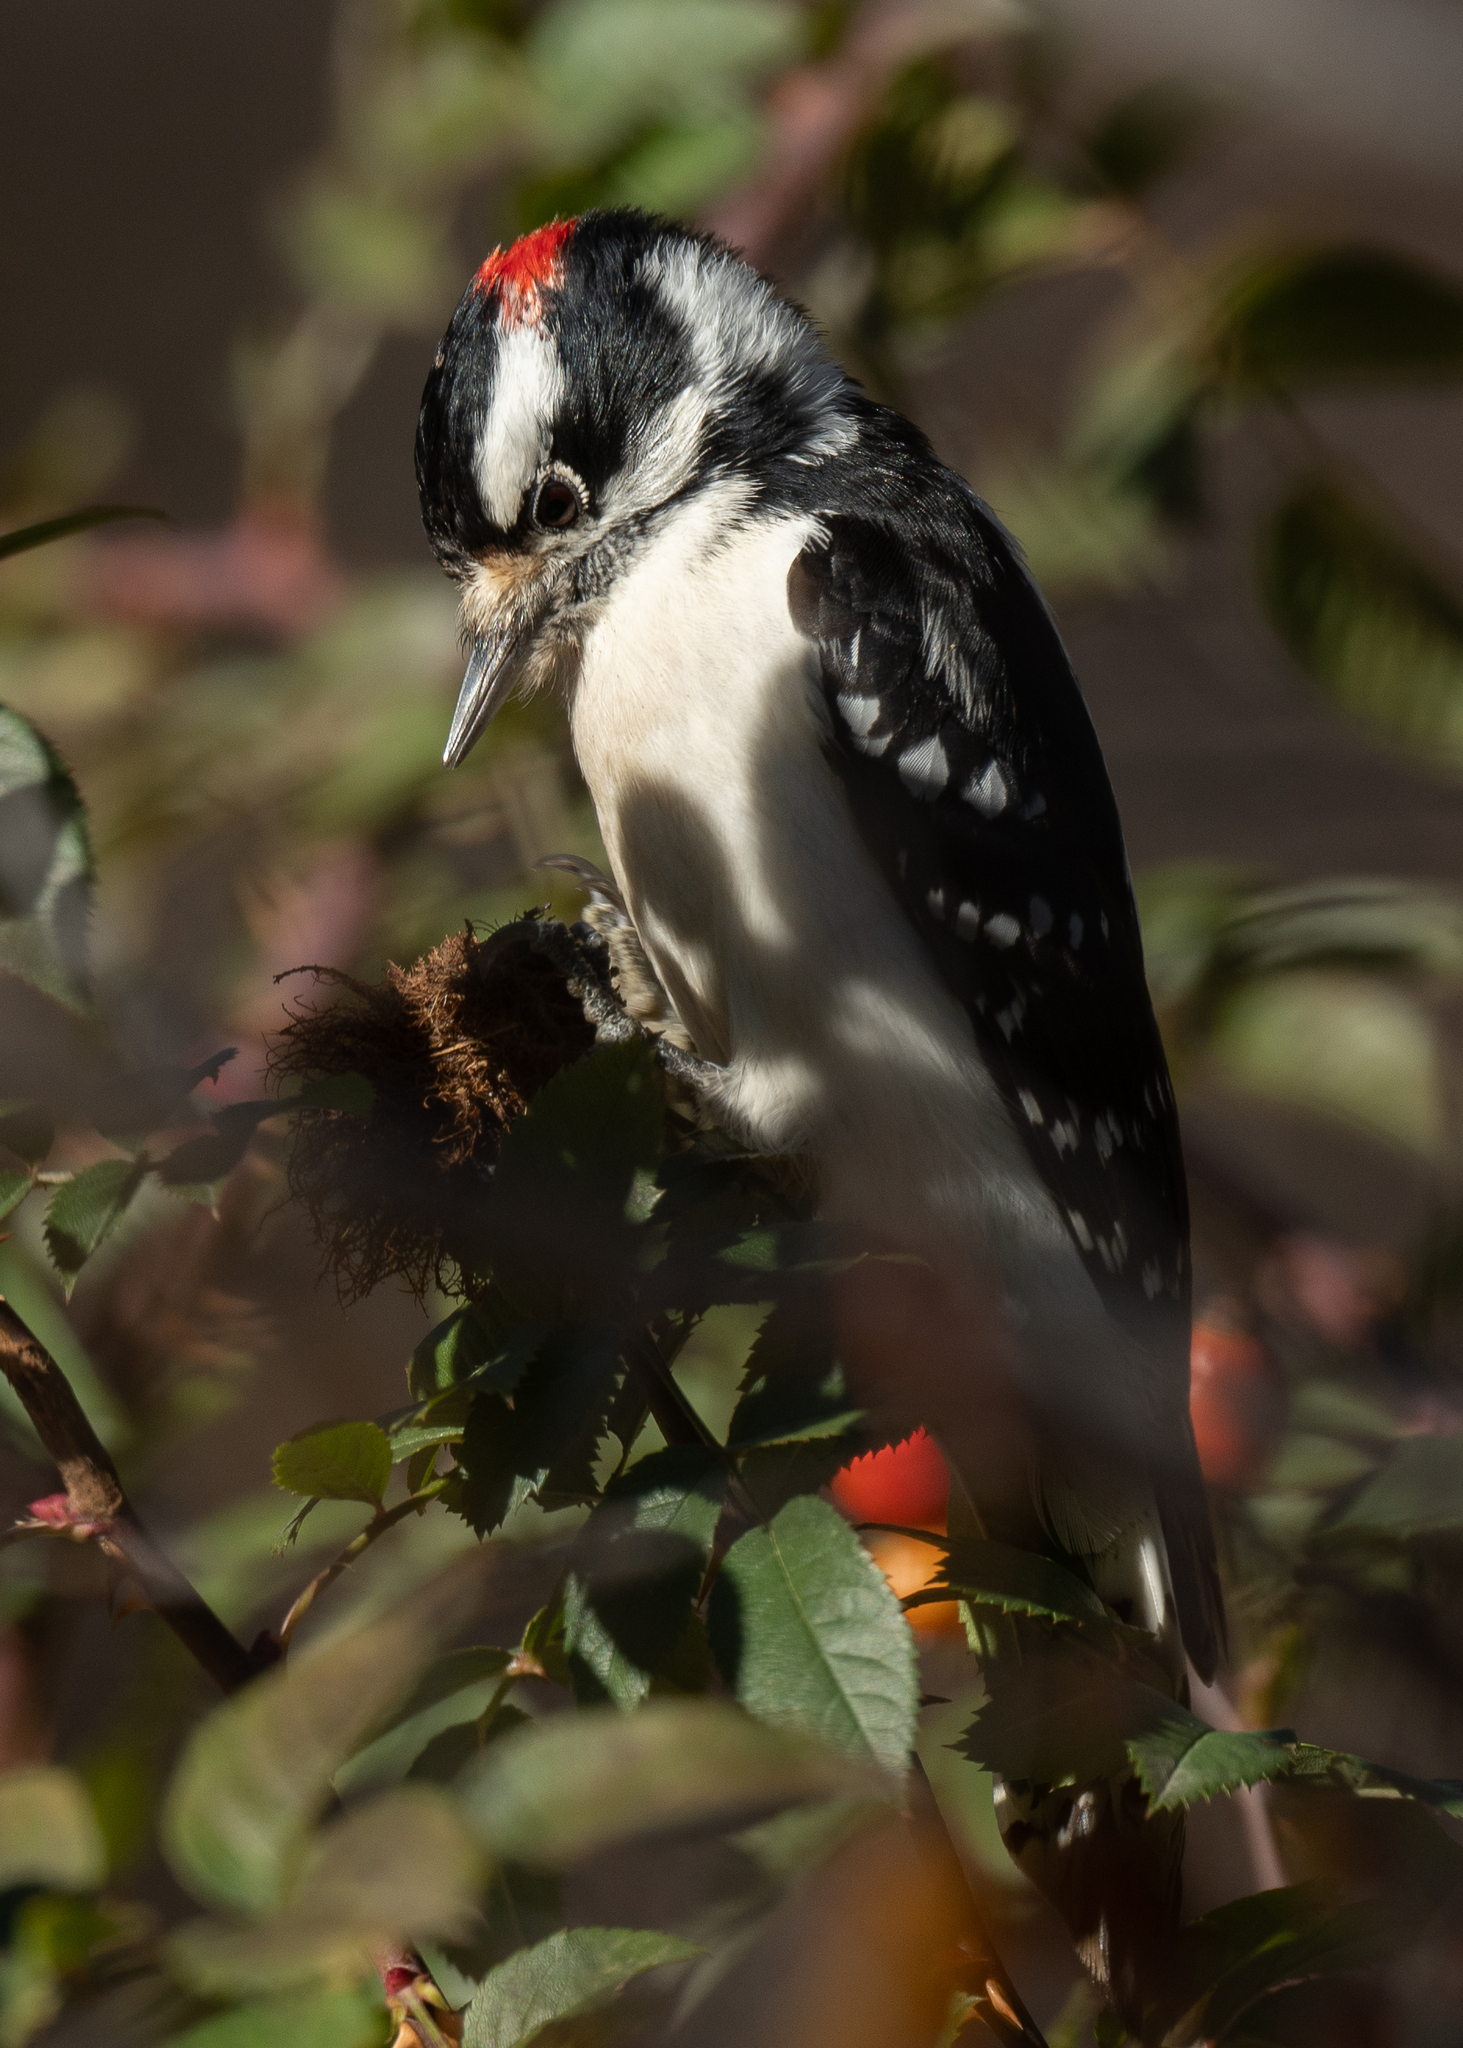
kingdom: Animalia
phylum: Chordata
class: Aves
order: Piciformes
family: Picidae
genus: Dryobates
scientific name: Dryobates pubescens
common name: Downy woodpecker
